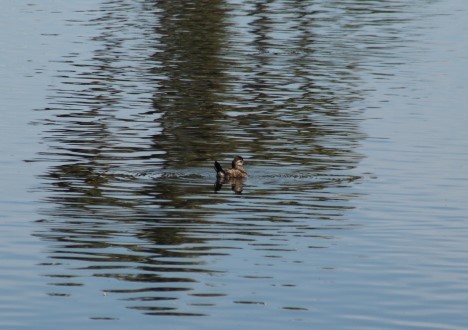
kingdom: Animalia
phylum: Chordata
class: Aves
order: Anseriformes
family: Anatidae
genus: Oxyura
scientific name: Oxyura jamaicensis
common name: Ruddy duck
